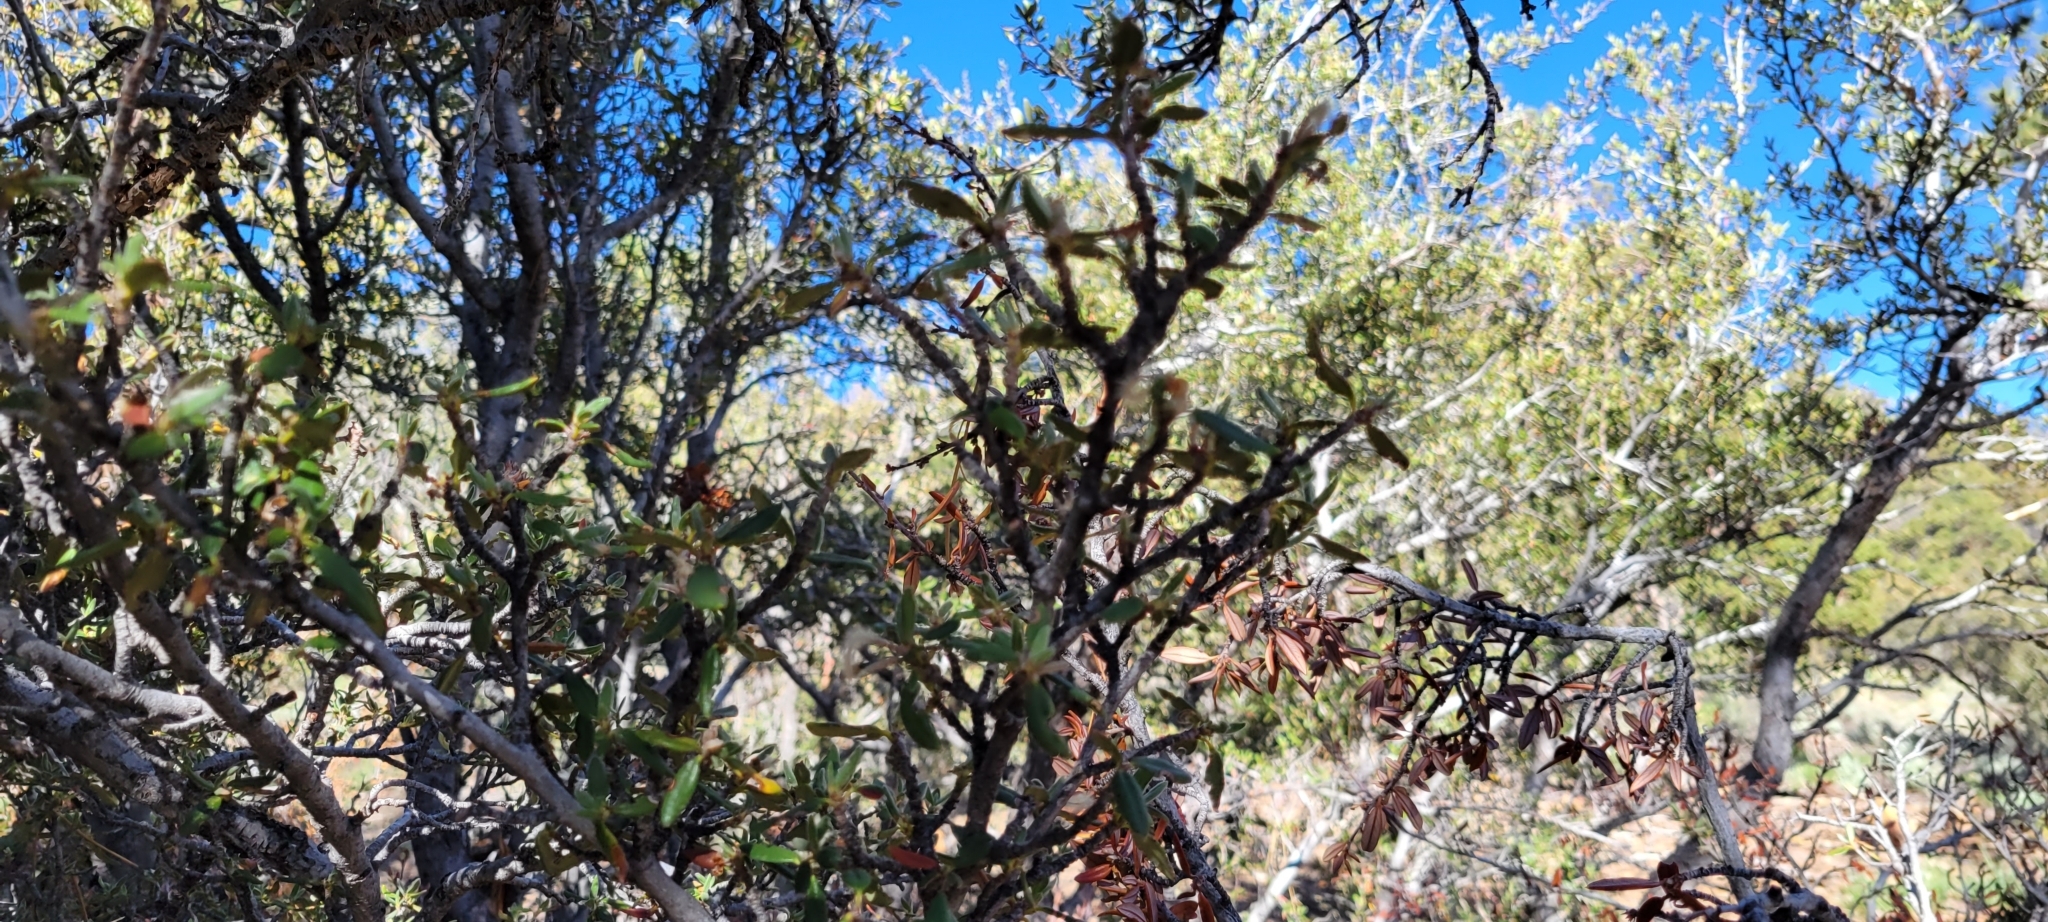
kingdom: Plantae
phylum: Tracheophyta
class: Magnoliopsida
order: Rosales
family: Rosaceae
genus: Cercocarpus
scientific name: Cercocarpus ledifolius
